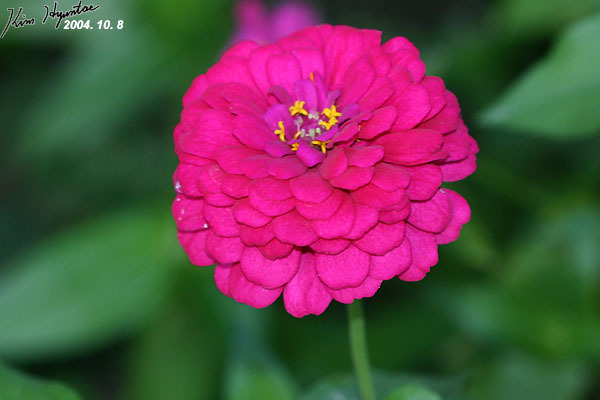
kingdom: Plantae
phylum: Tracheophyta
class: Magnoliopsida
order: Asterales
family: Asteraceae
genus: Zinnia
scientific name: Zinnia elegans
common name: Youth-and-age
